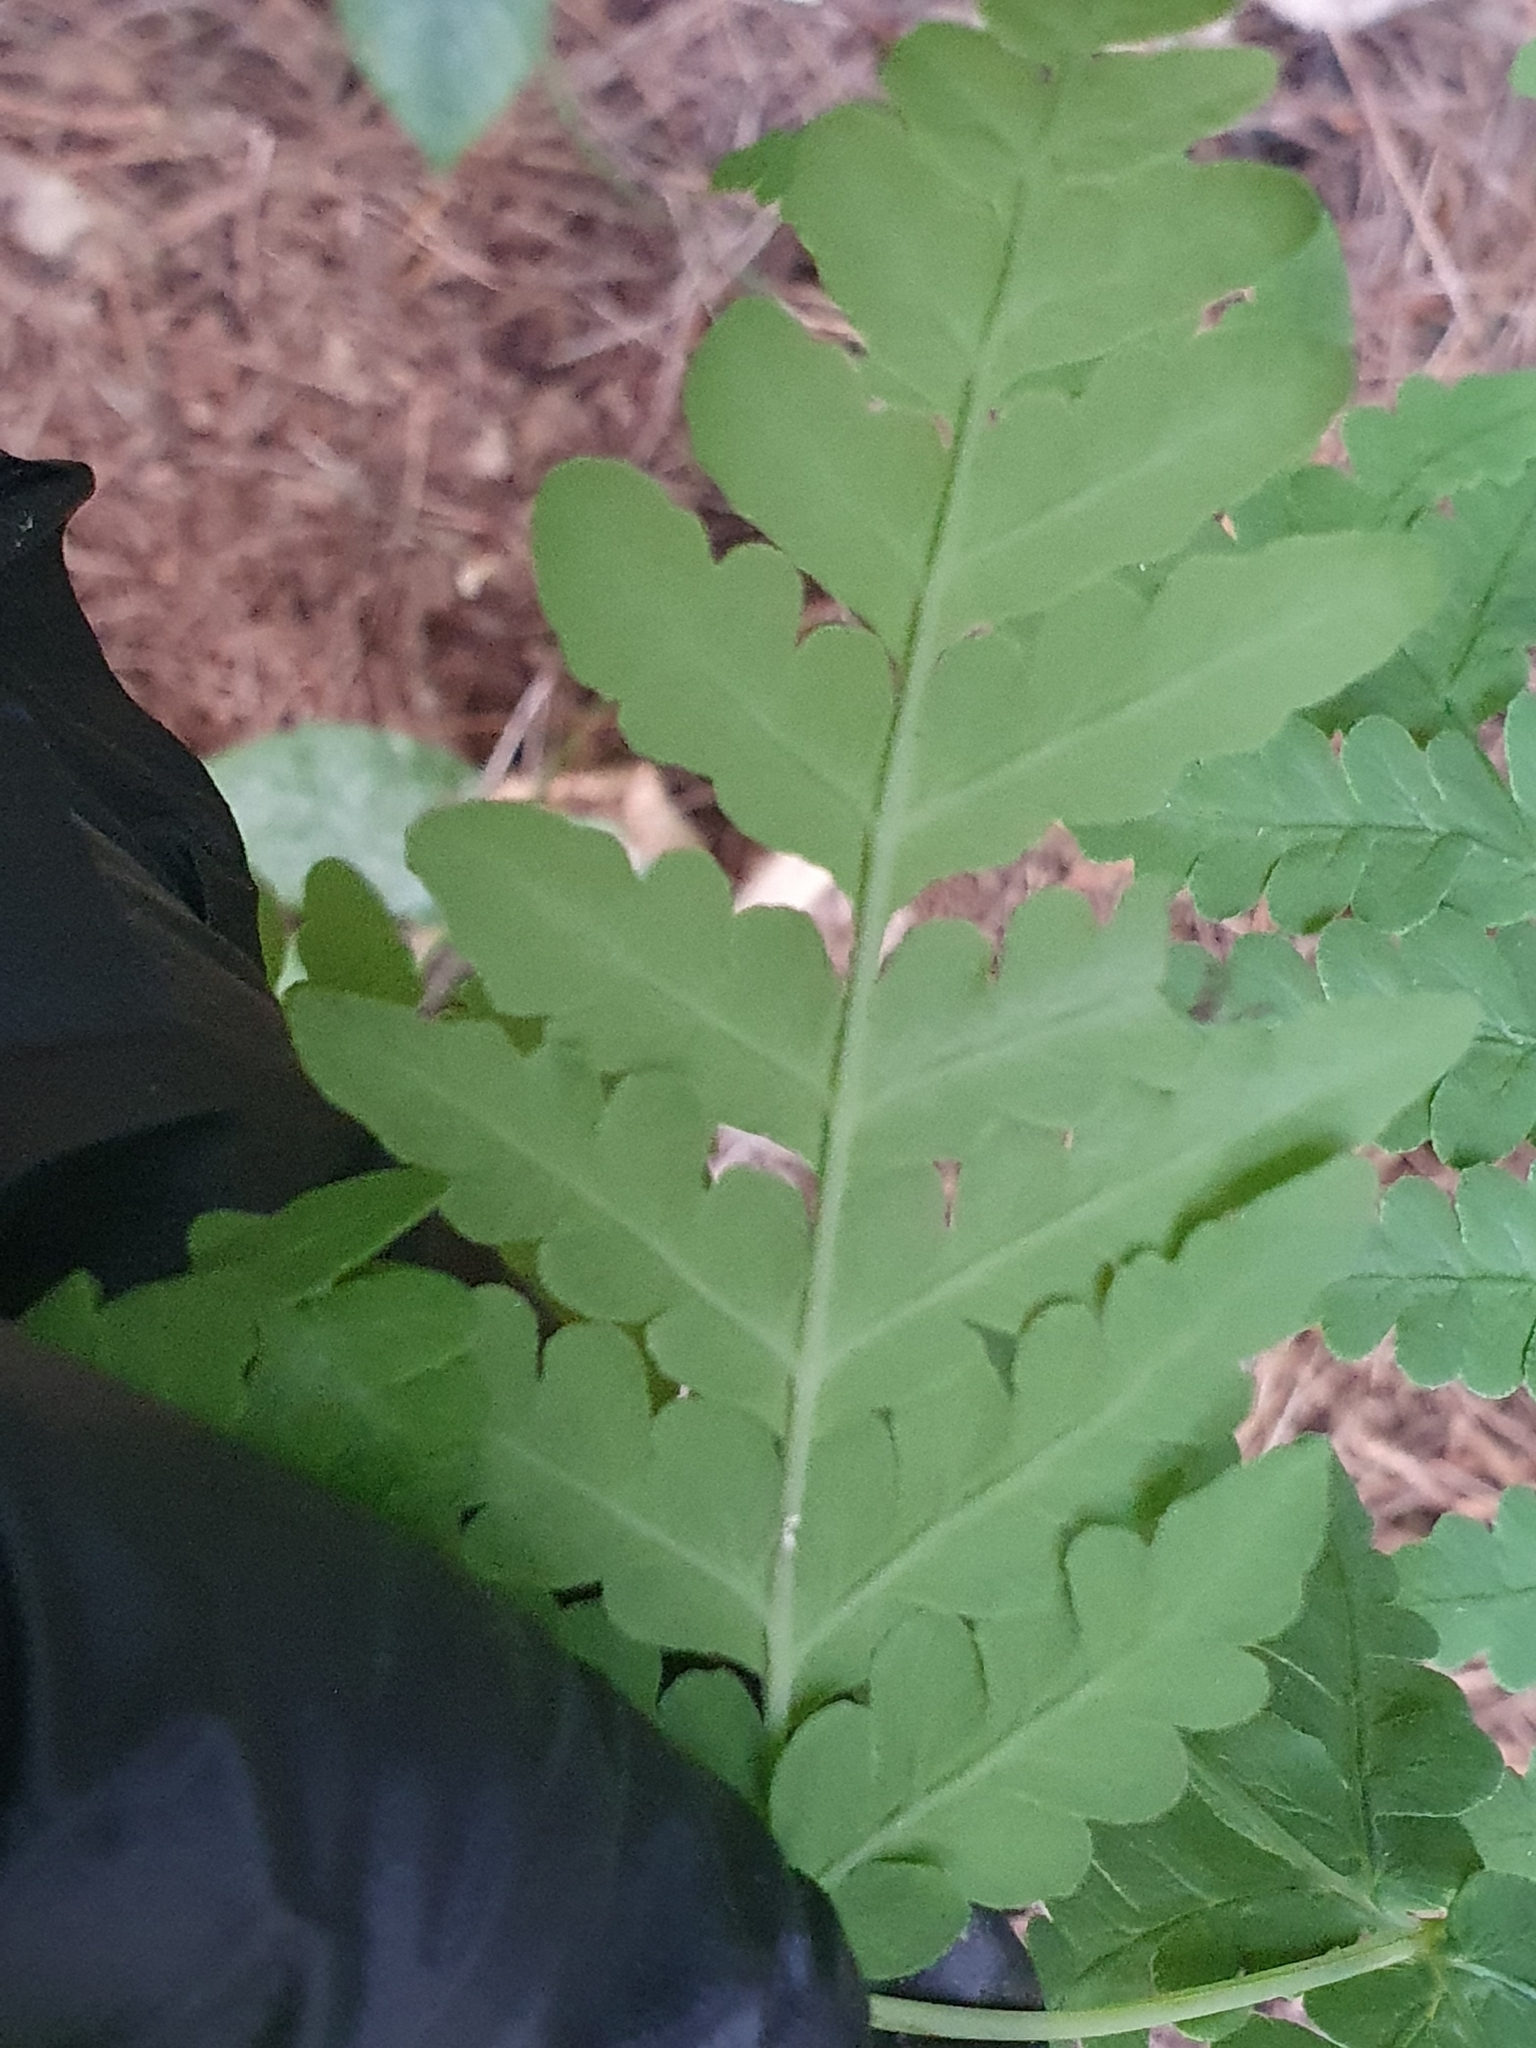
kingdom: Plantae
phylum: Tracheophyta
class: Polypodiopsida
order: Polypodiales
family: Dennstaedtiaceae
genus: Histiopteris
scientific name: Histiopteris incisa
